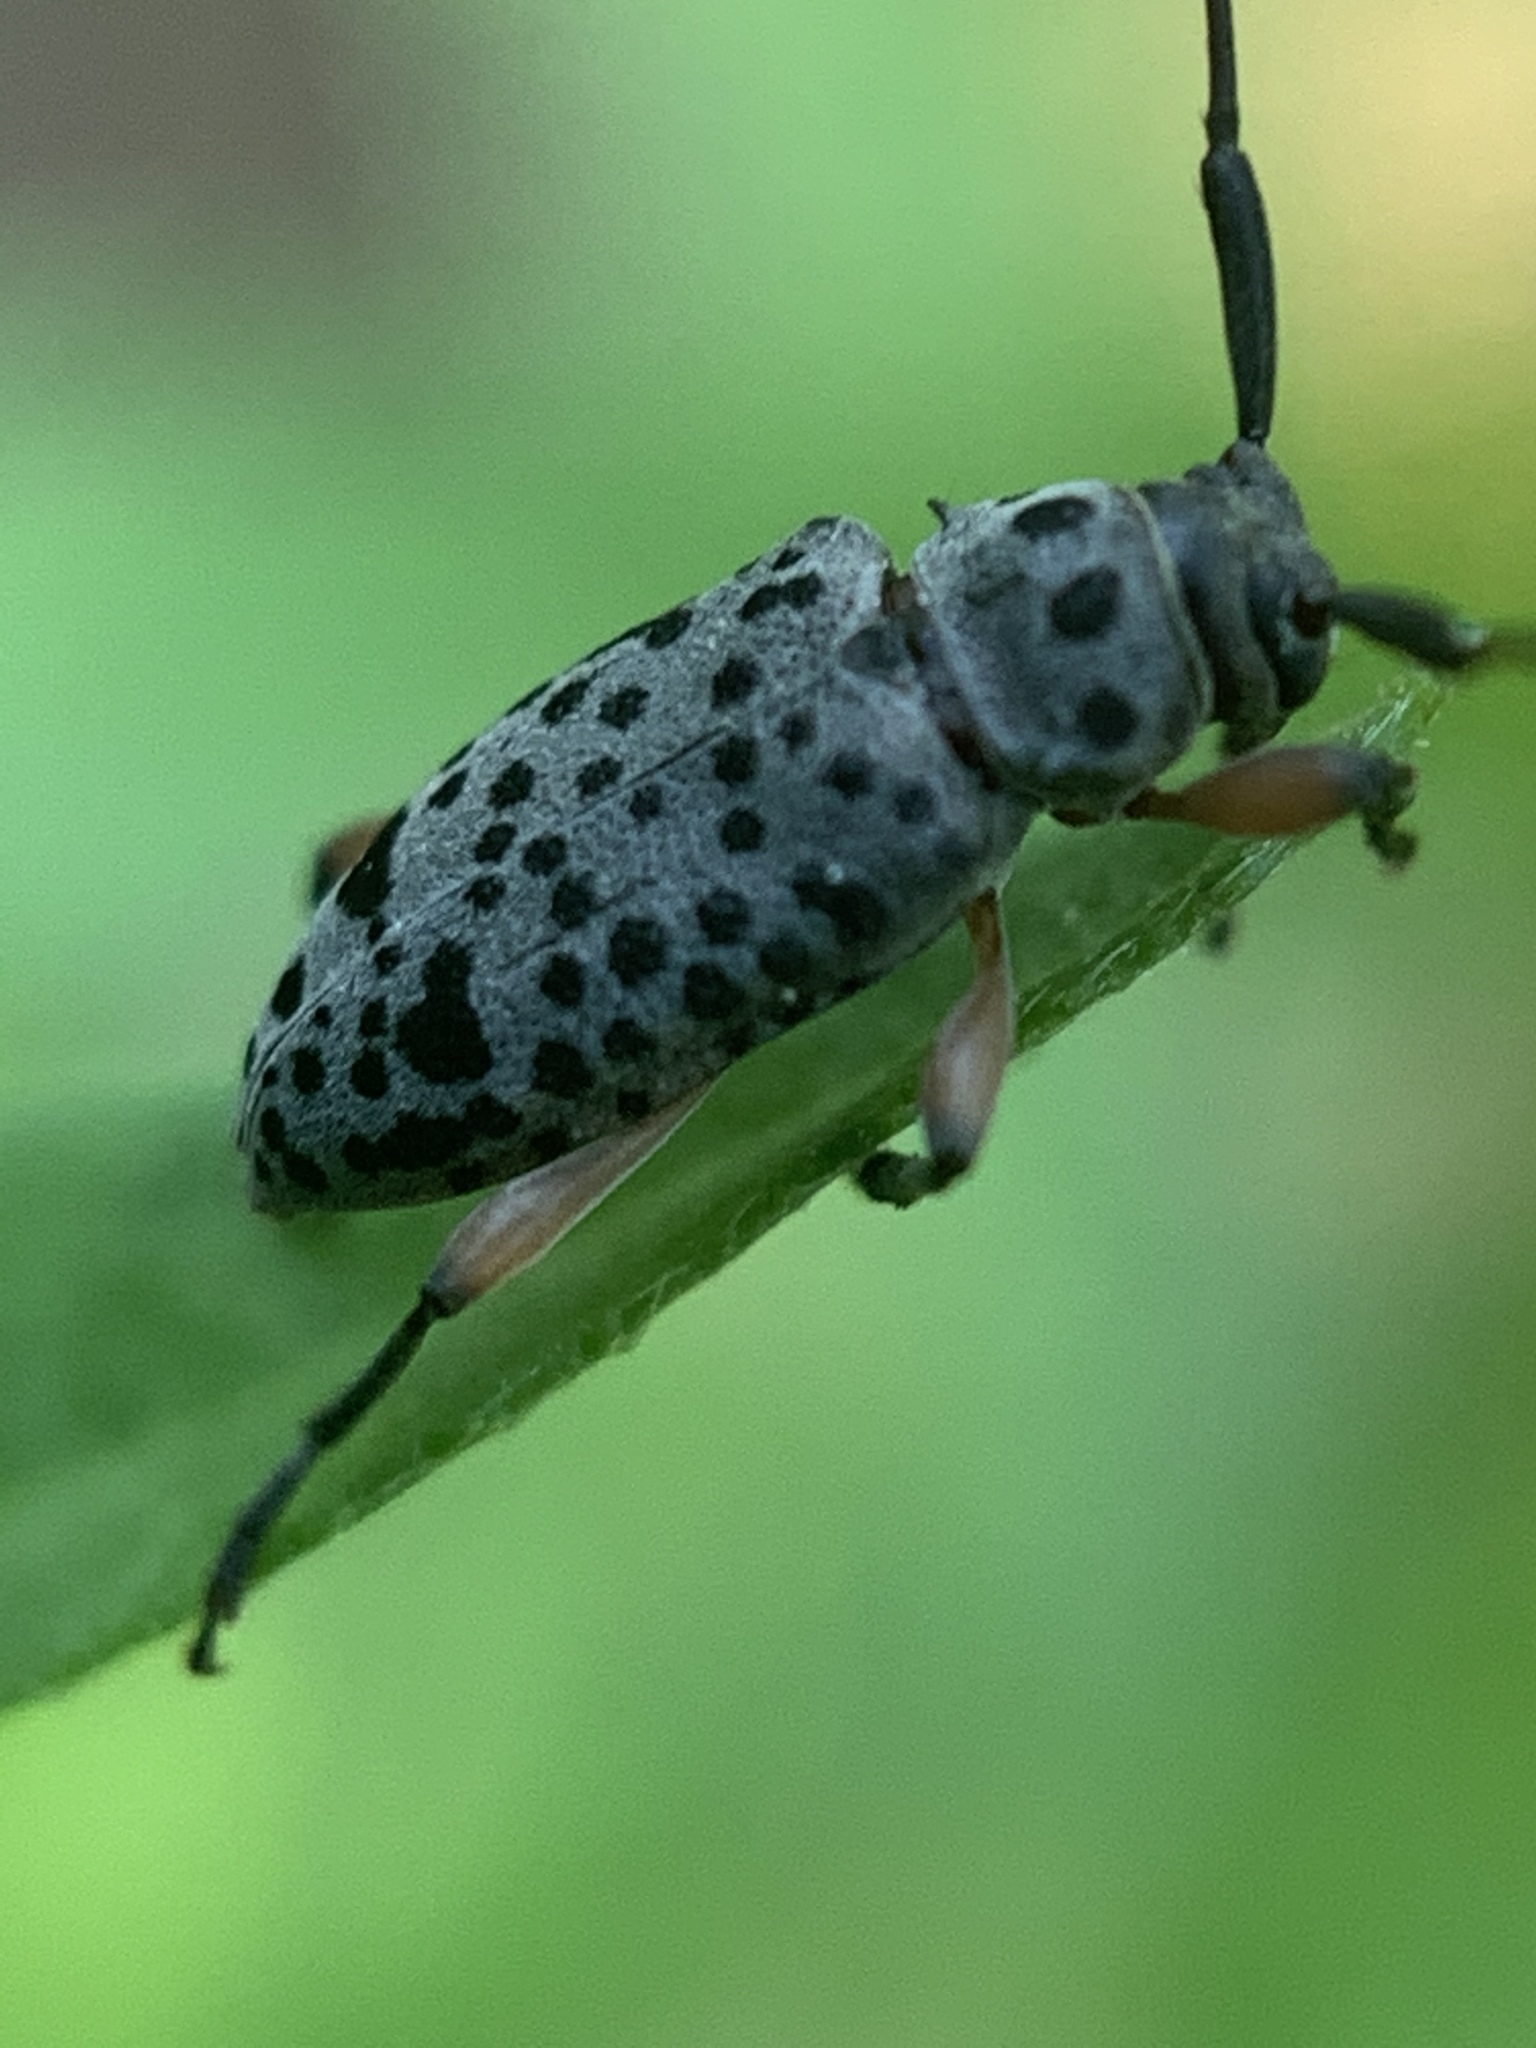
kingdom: Animalia
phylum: Arthropoda
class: Insecta
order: Coleoptera
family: Cerambycidae
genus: Hyperplatys
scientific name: Hyperplatys aspersa
